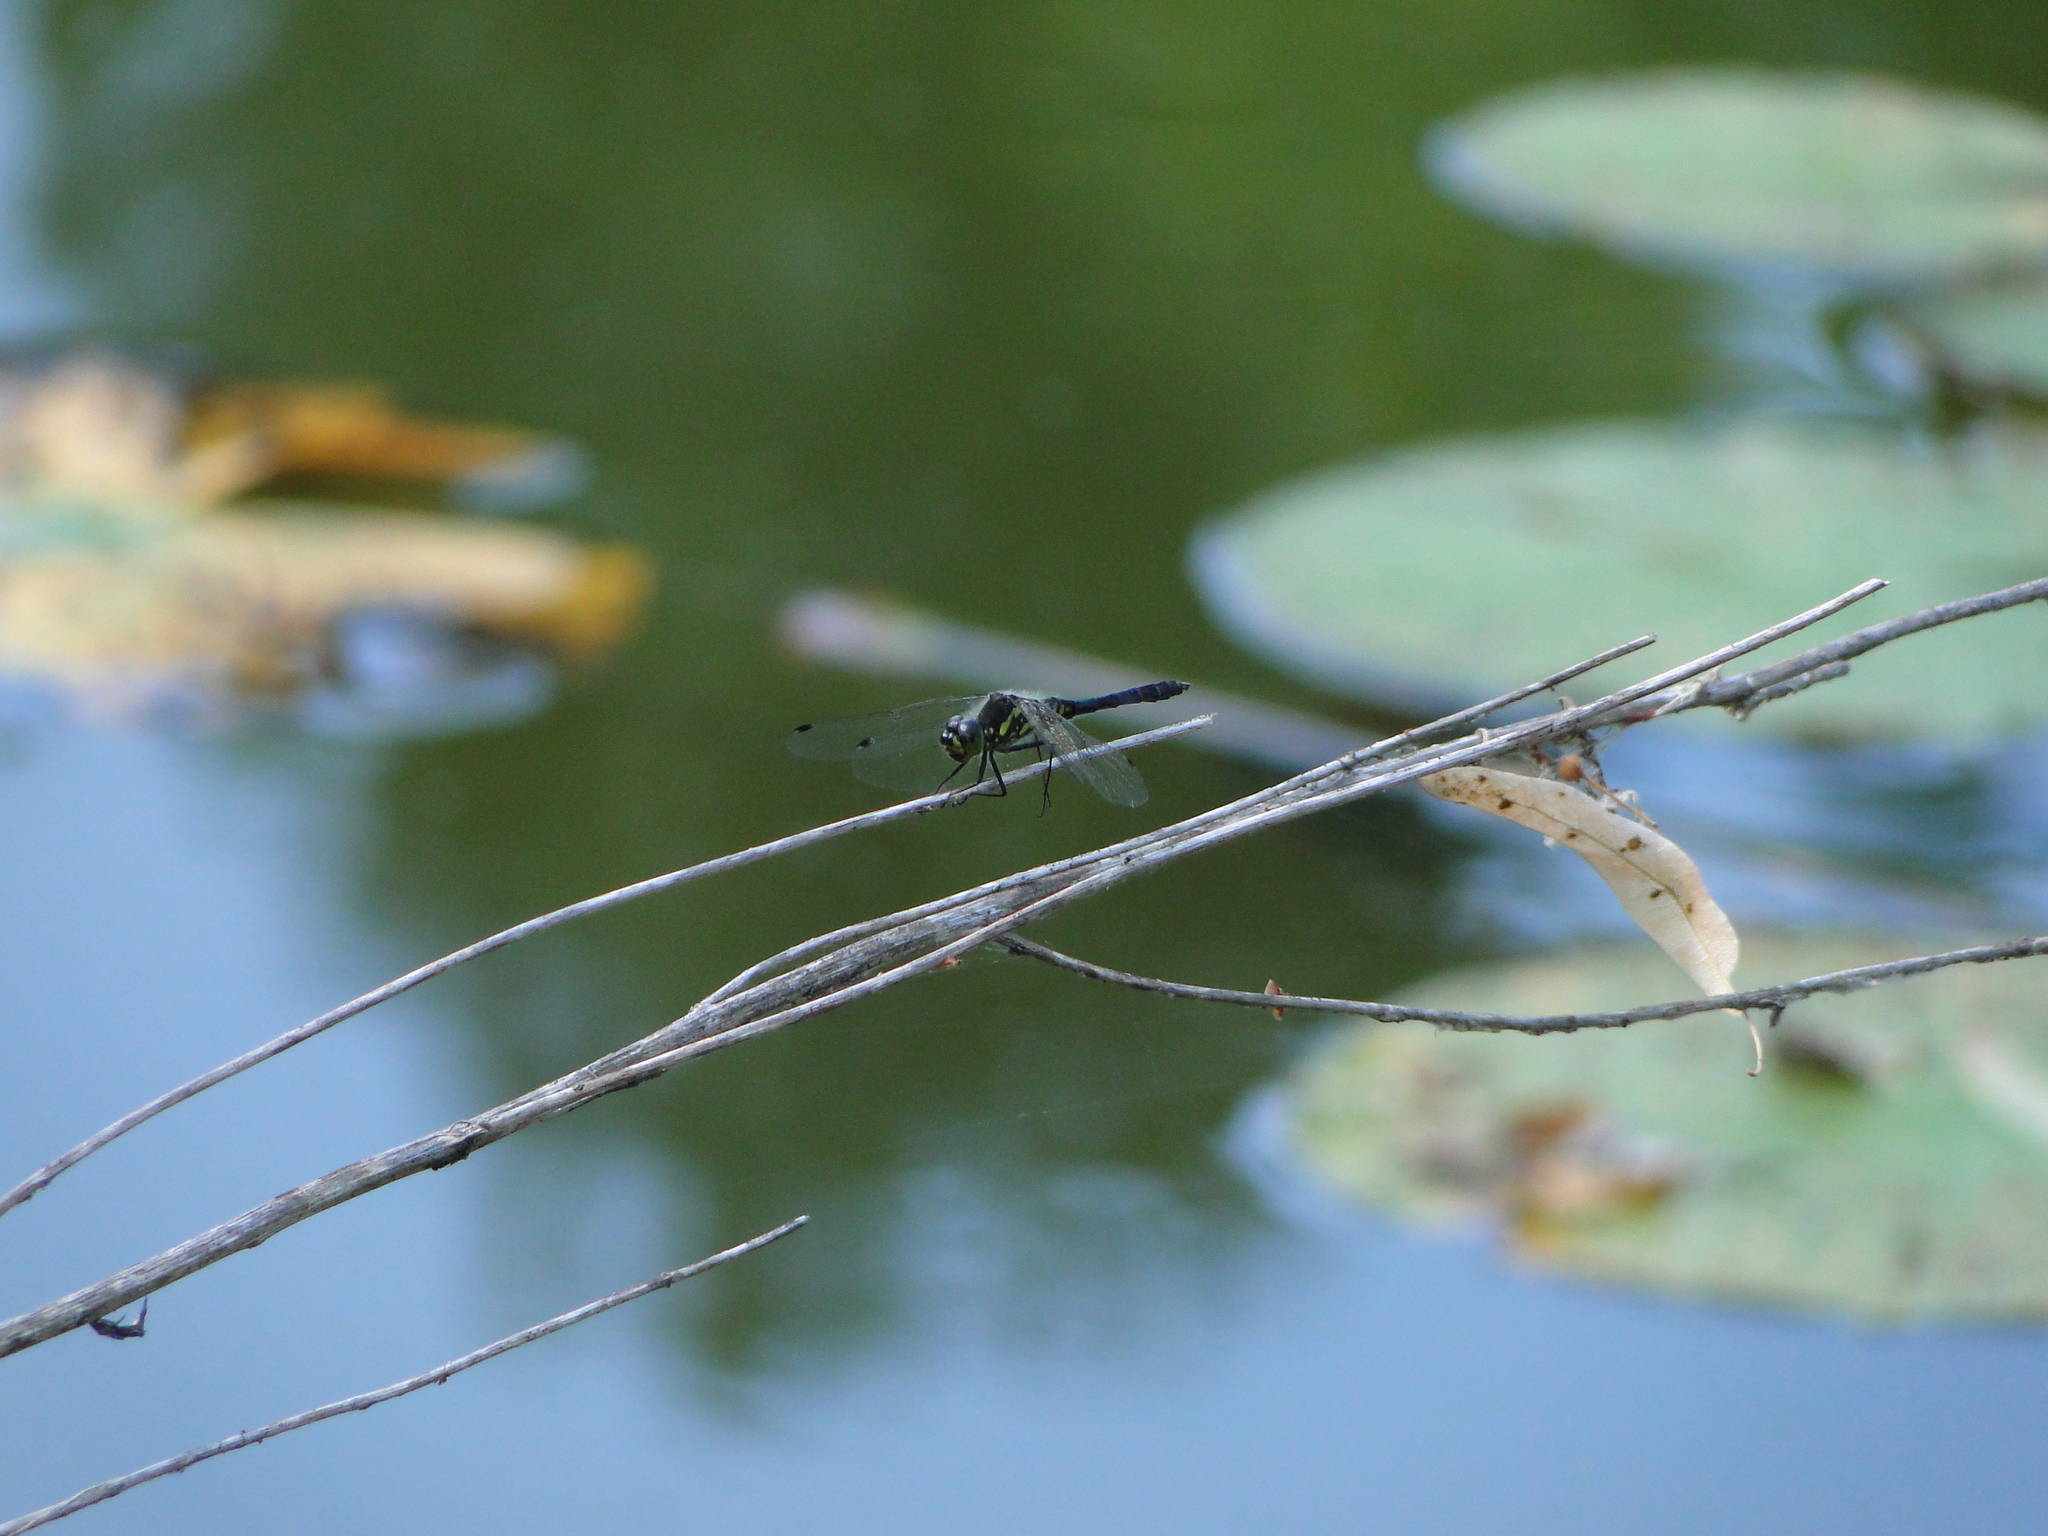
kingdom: Animalia
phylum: Arthropoda
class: Insecta
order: Odonata
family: Libellulidae
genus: Sympetrum
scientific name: Sympetrum danae
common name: Black darter
